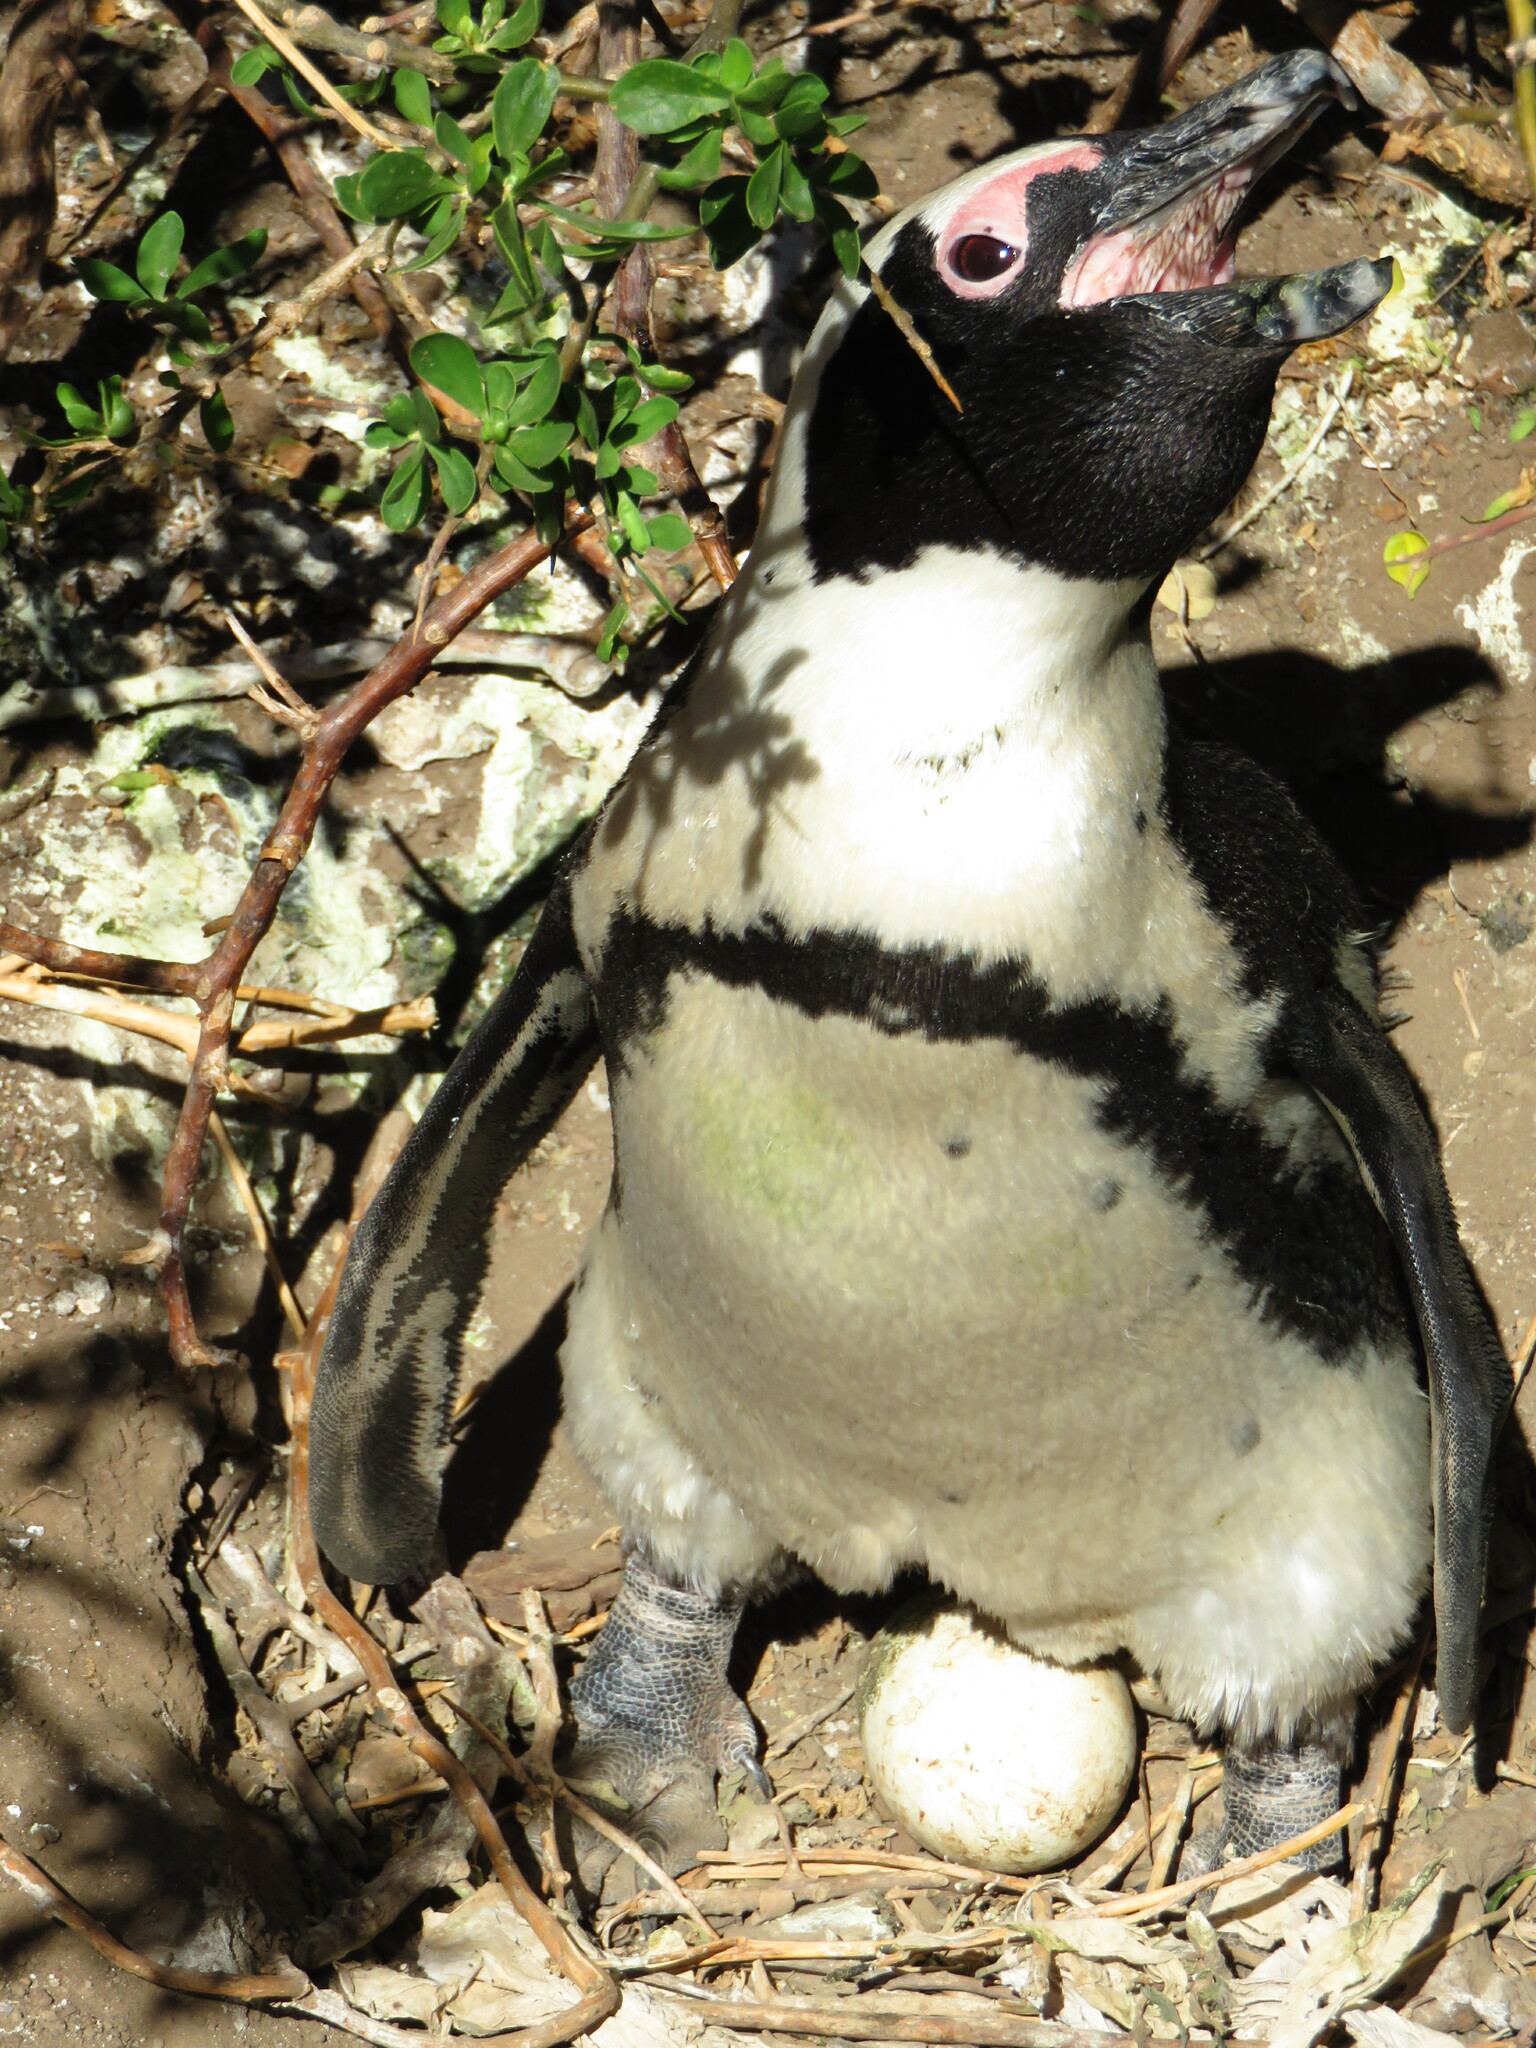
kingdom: Animalia
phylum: Chordata
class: Aves
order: Sphenisciformes
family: Spheniscidae
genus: Spheniscus
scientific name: Spheniscus demersus
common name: African penguin
